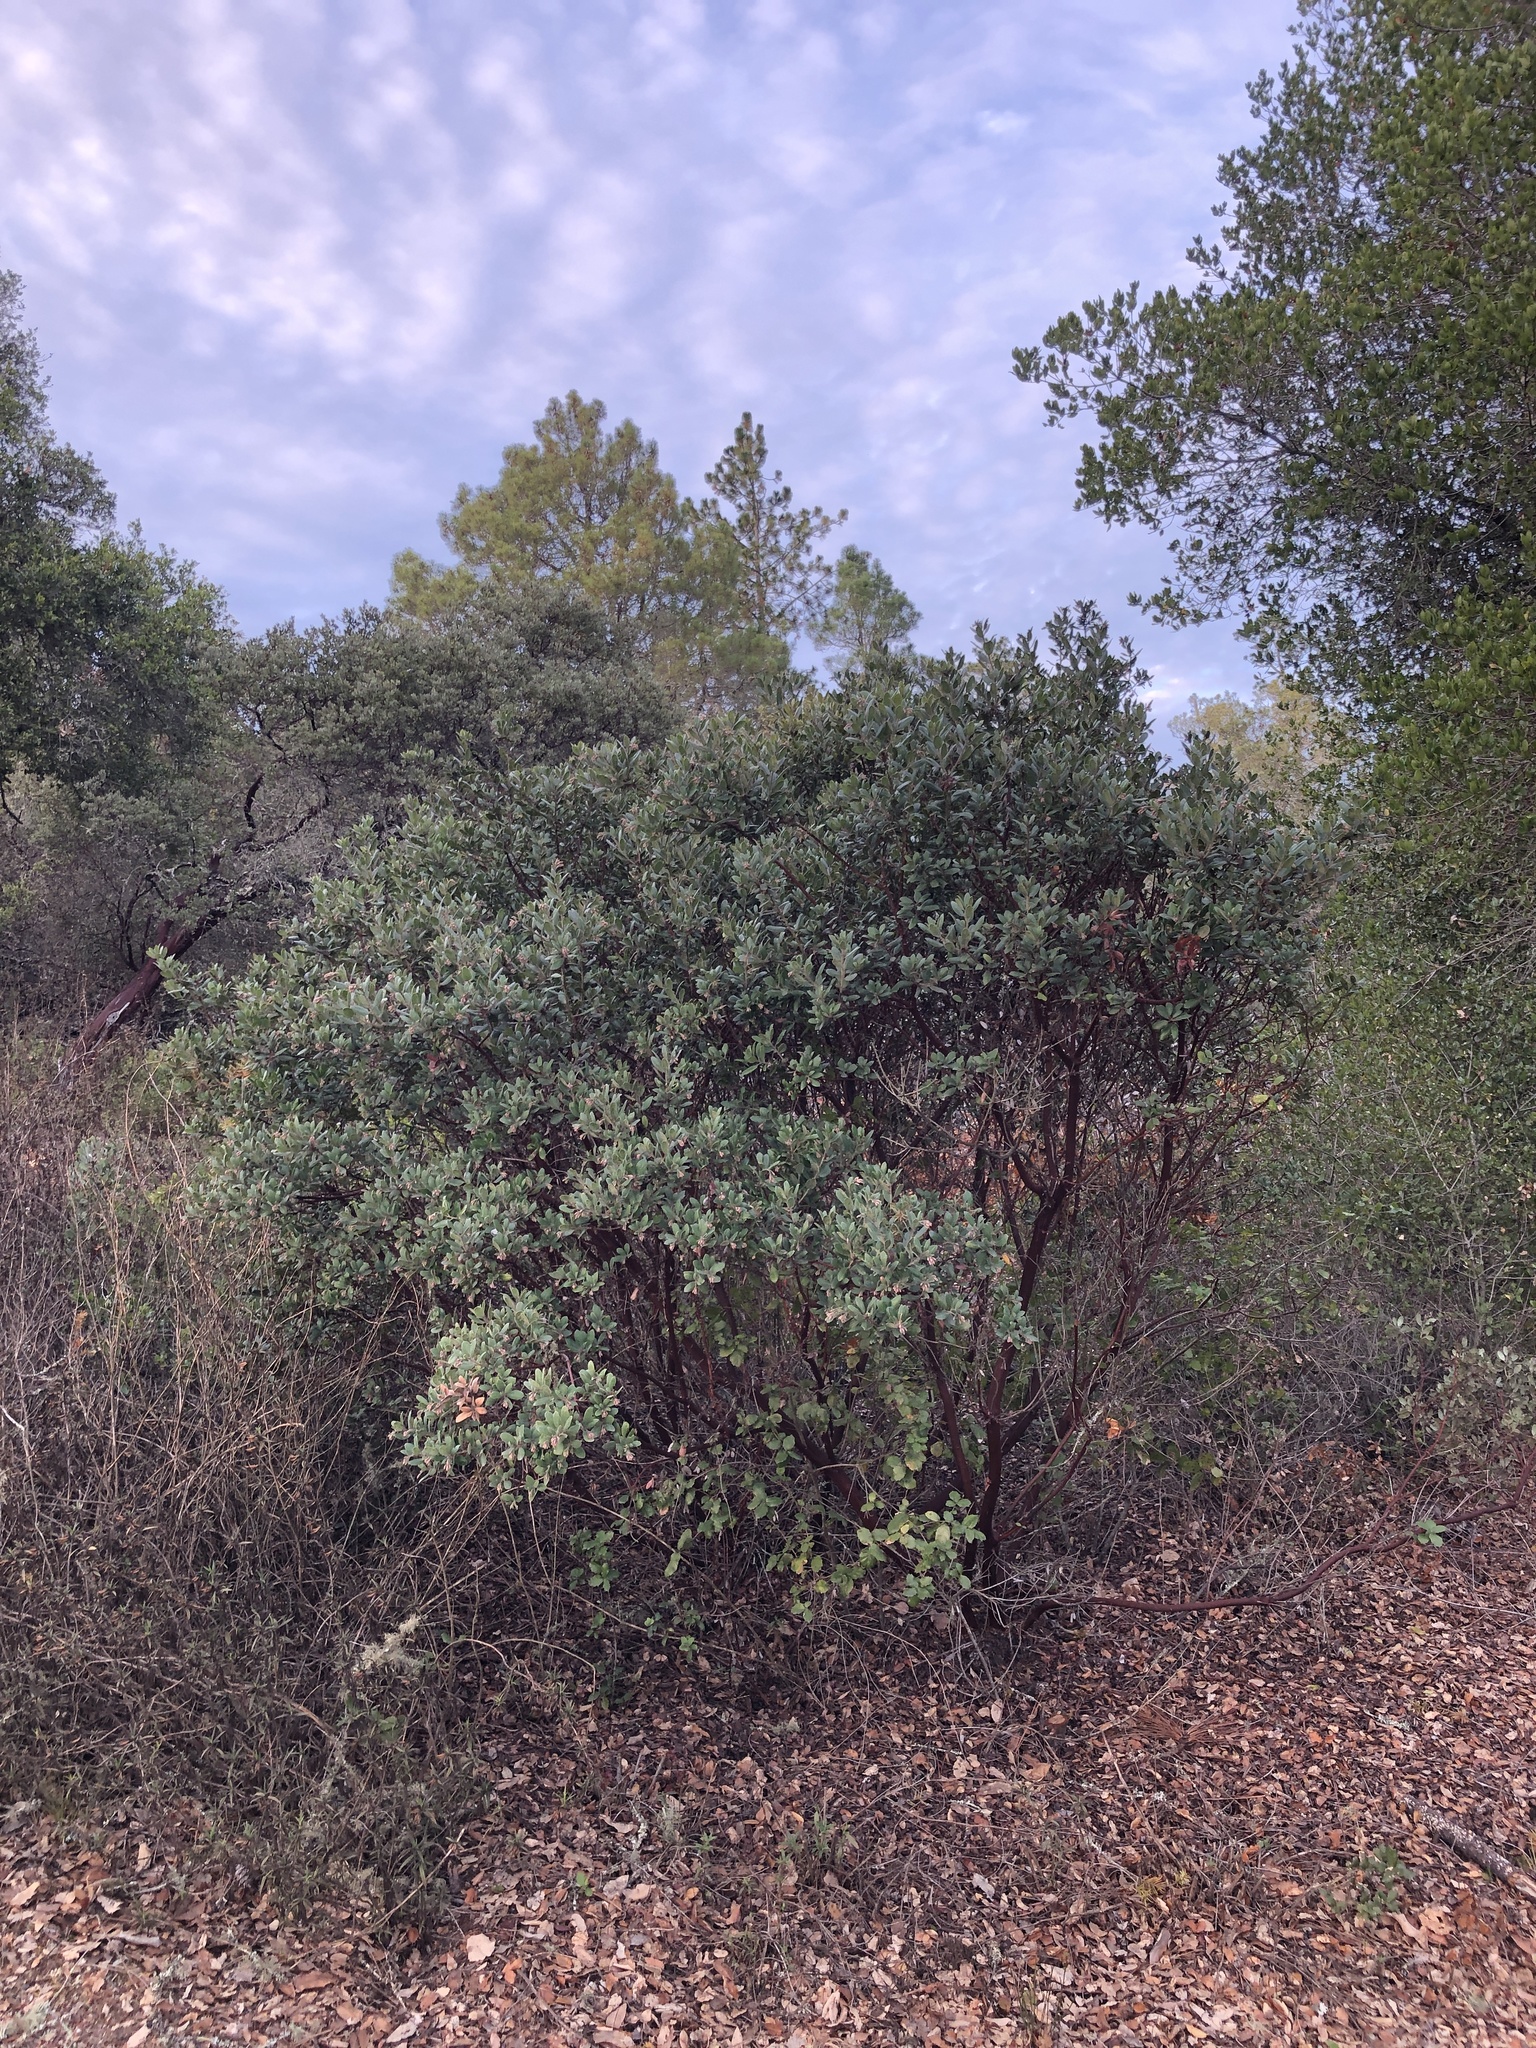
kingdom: Plantae
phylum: Tracheophyta
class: Magnoliopsida
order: Ericales
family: Ericaceae
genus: Arctostaphylos
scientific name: Arctostaphylos crustacea
